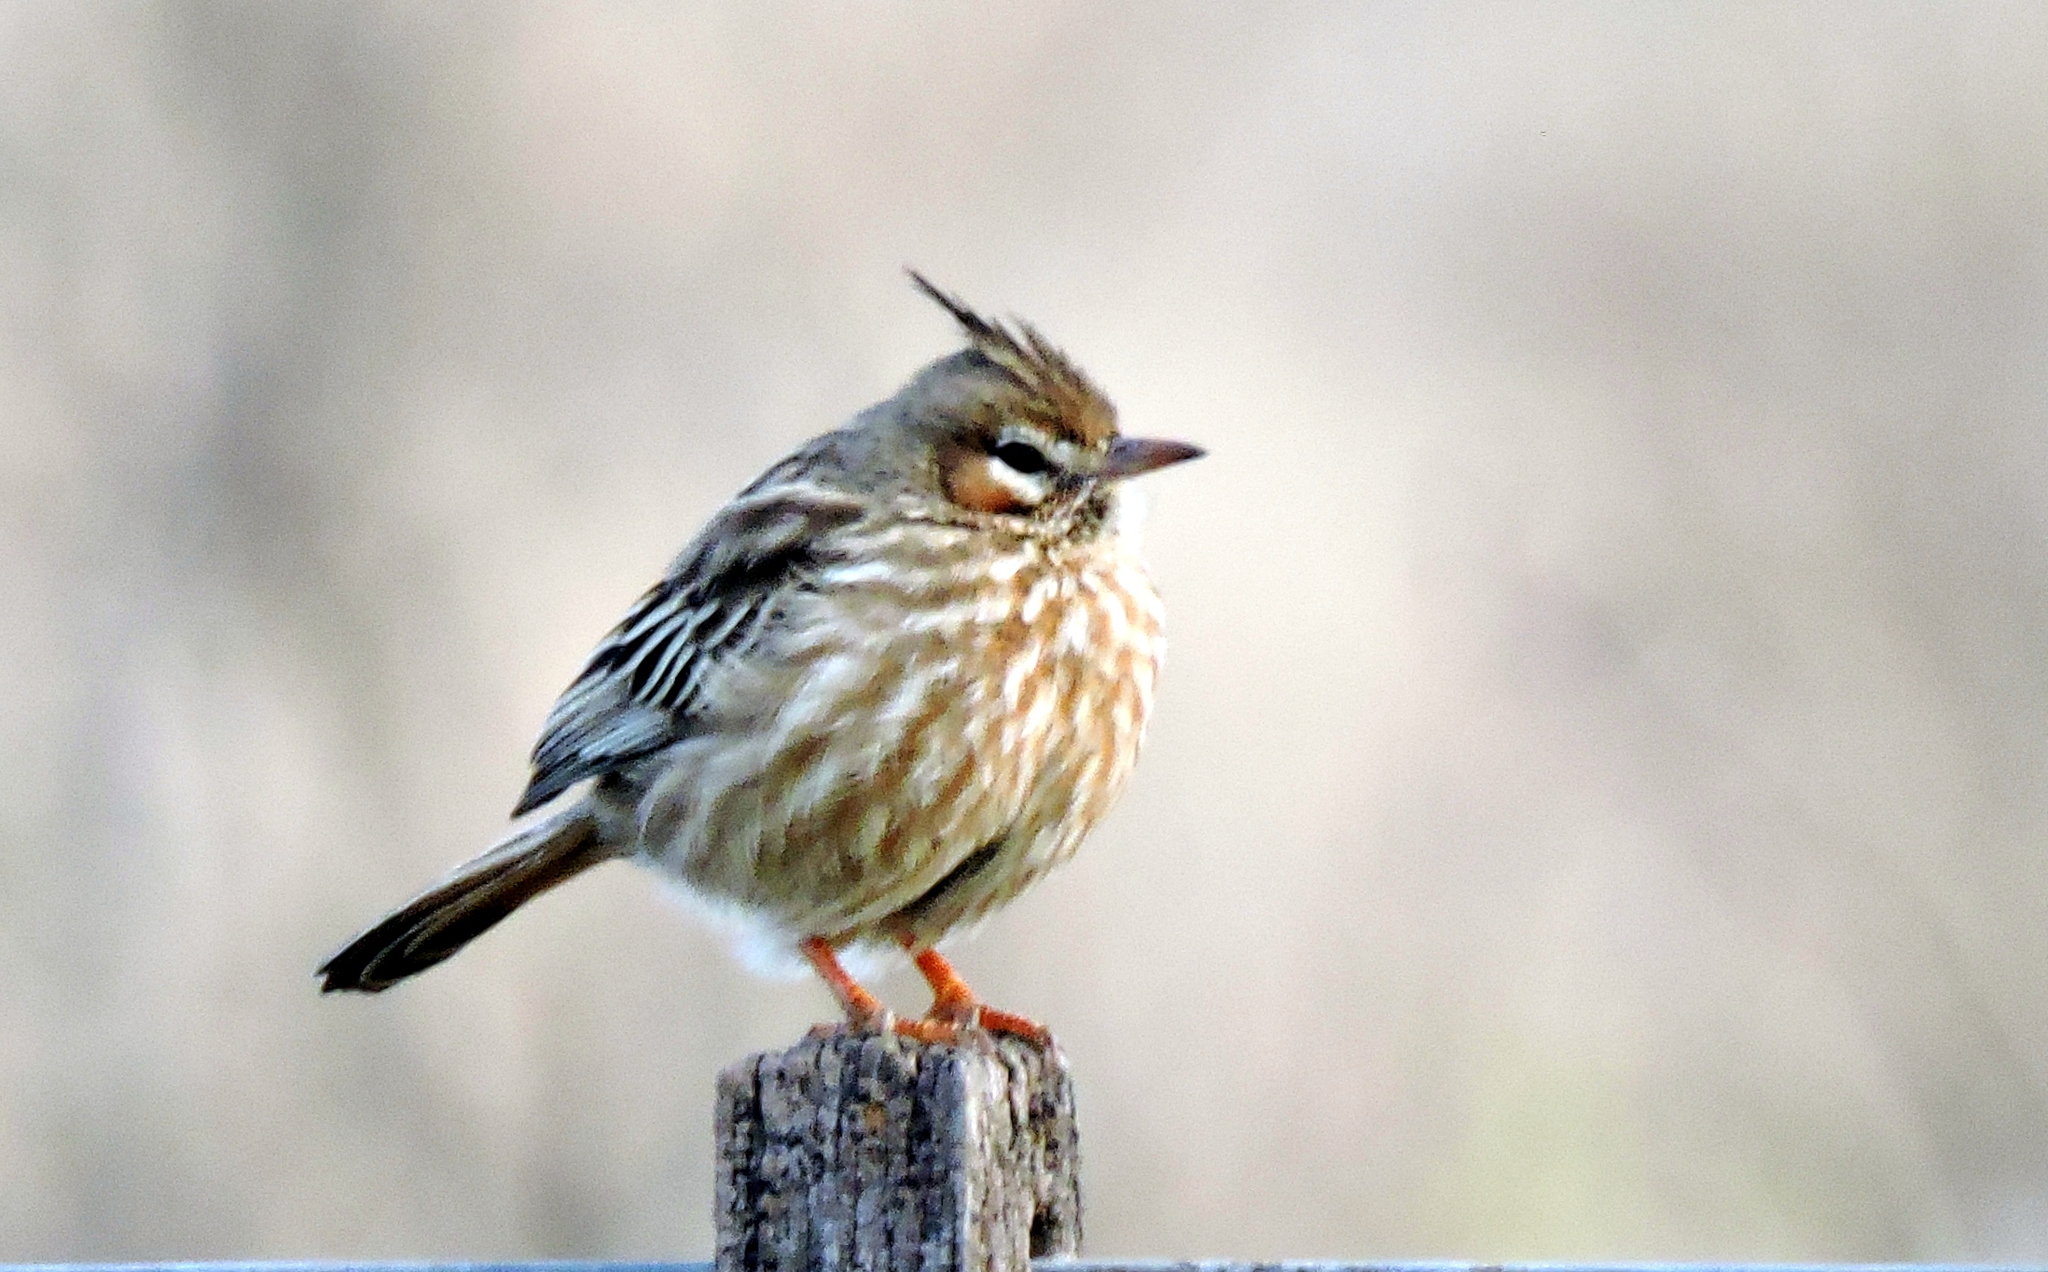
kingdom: Animalia
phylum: Chordata
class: Aves
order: Passeriformes
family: Furnariidae
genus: Coryphistera
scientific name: Coryphistera alaudina
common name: Lark-like brushrunner
